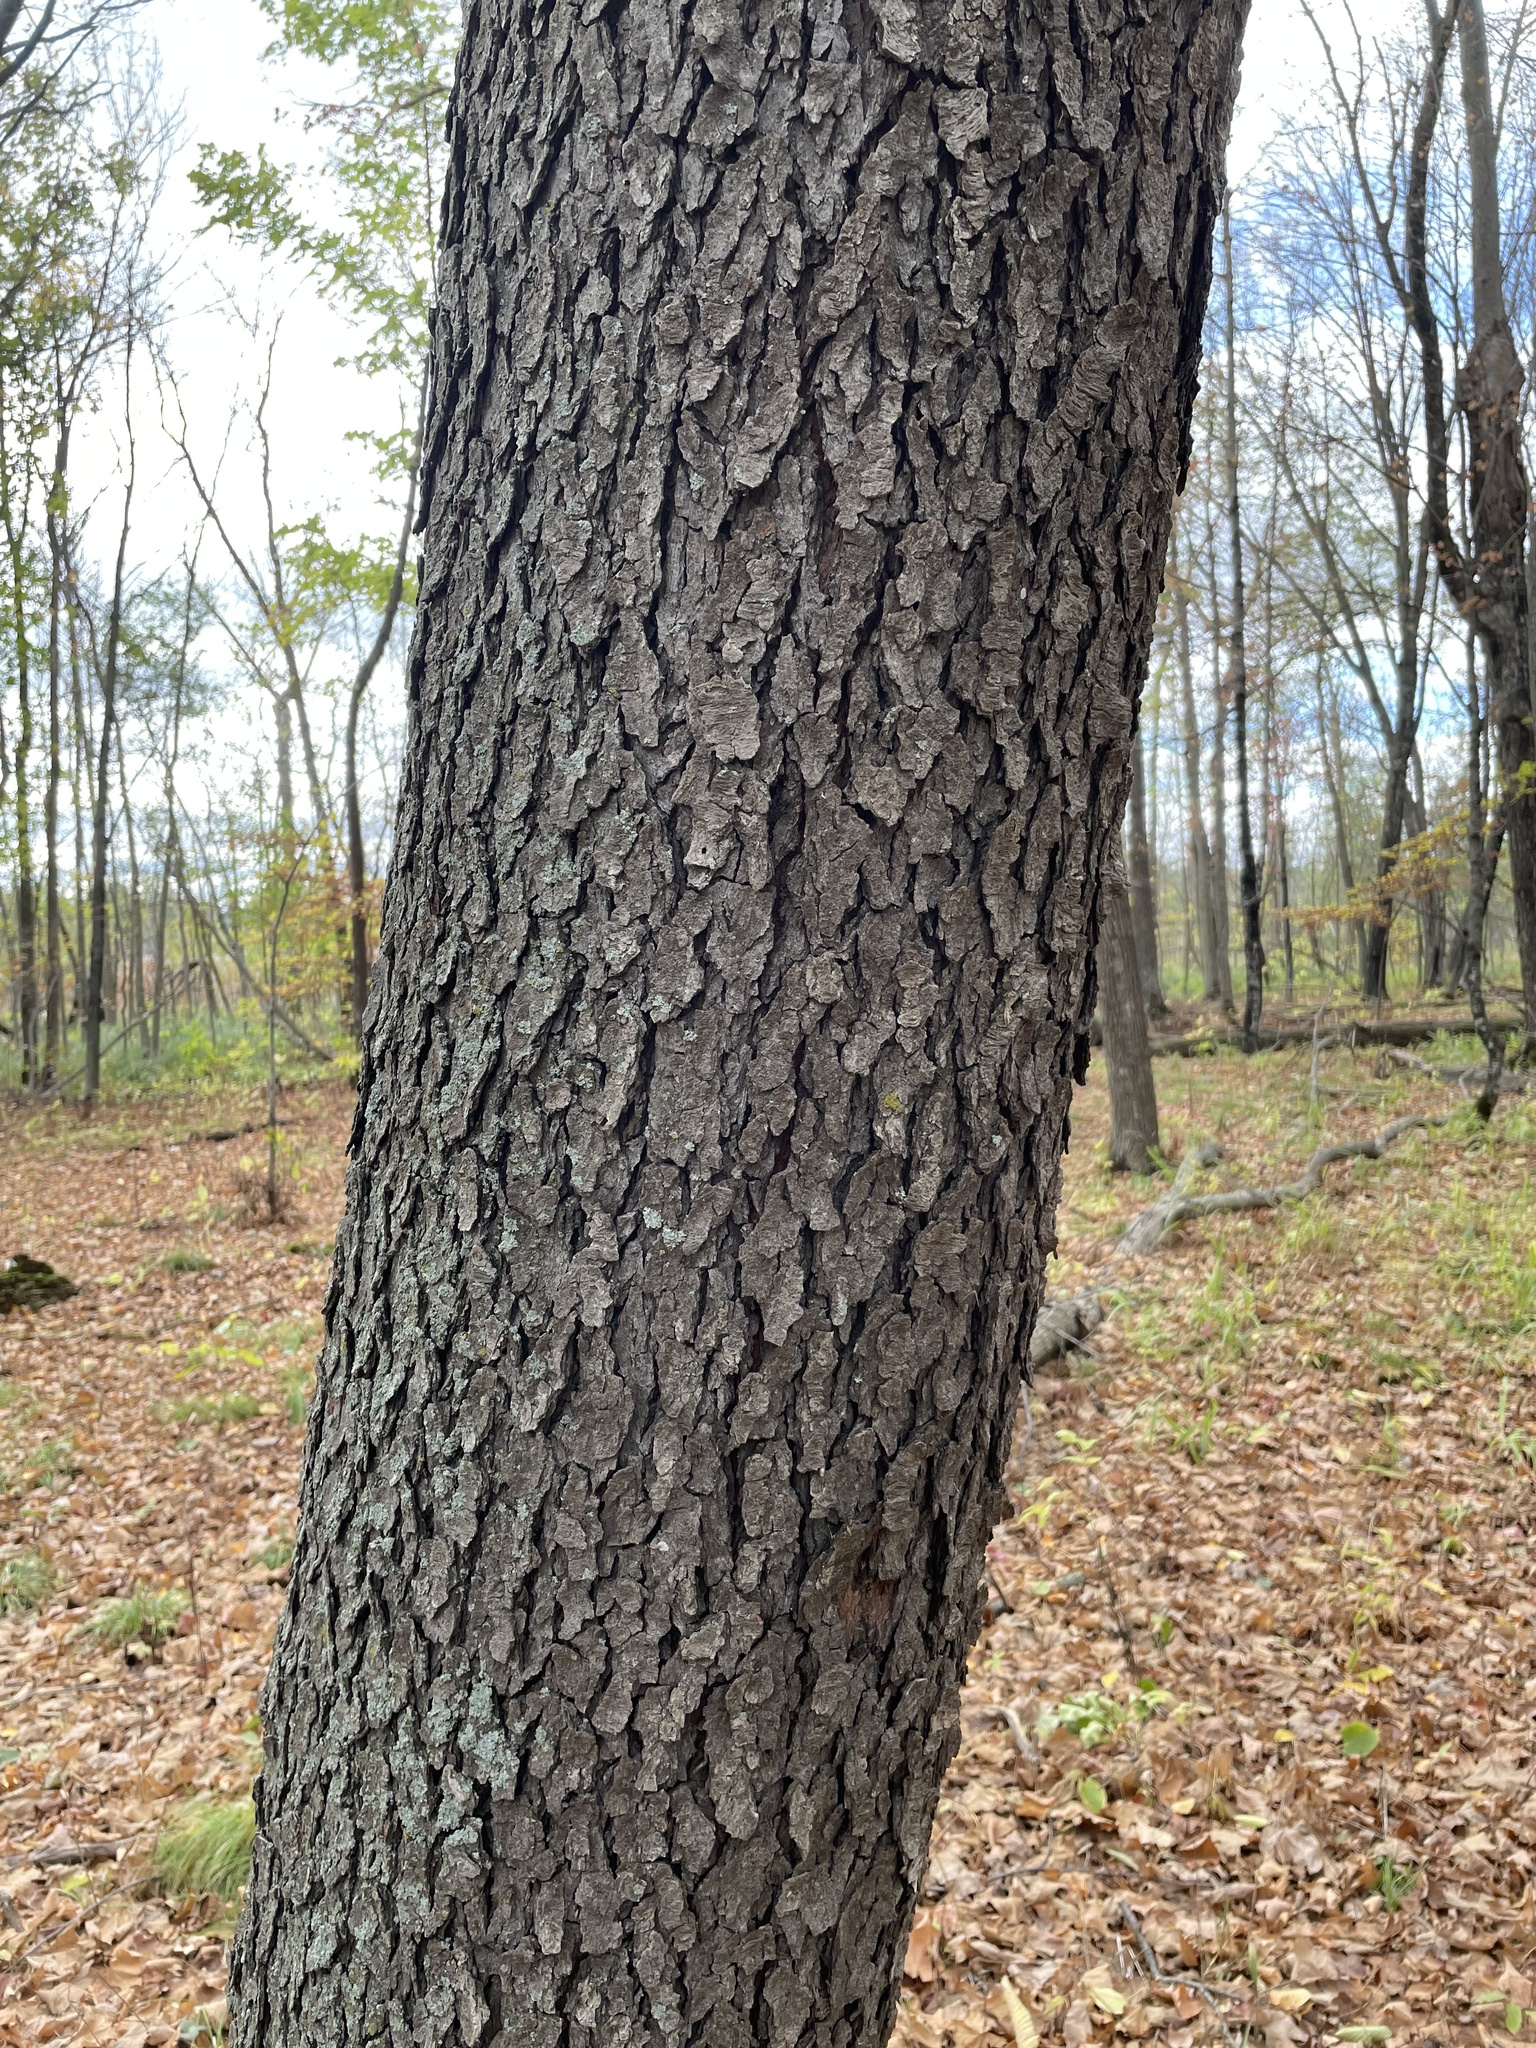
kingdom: Plantae
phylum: Tracheophyta
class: Magnoliopsida
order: Rosales
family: Rosaceae
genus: Prunus
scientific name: Prunus serotina
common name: Black cherry
